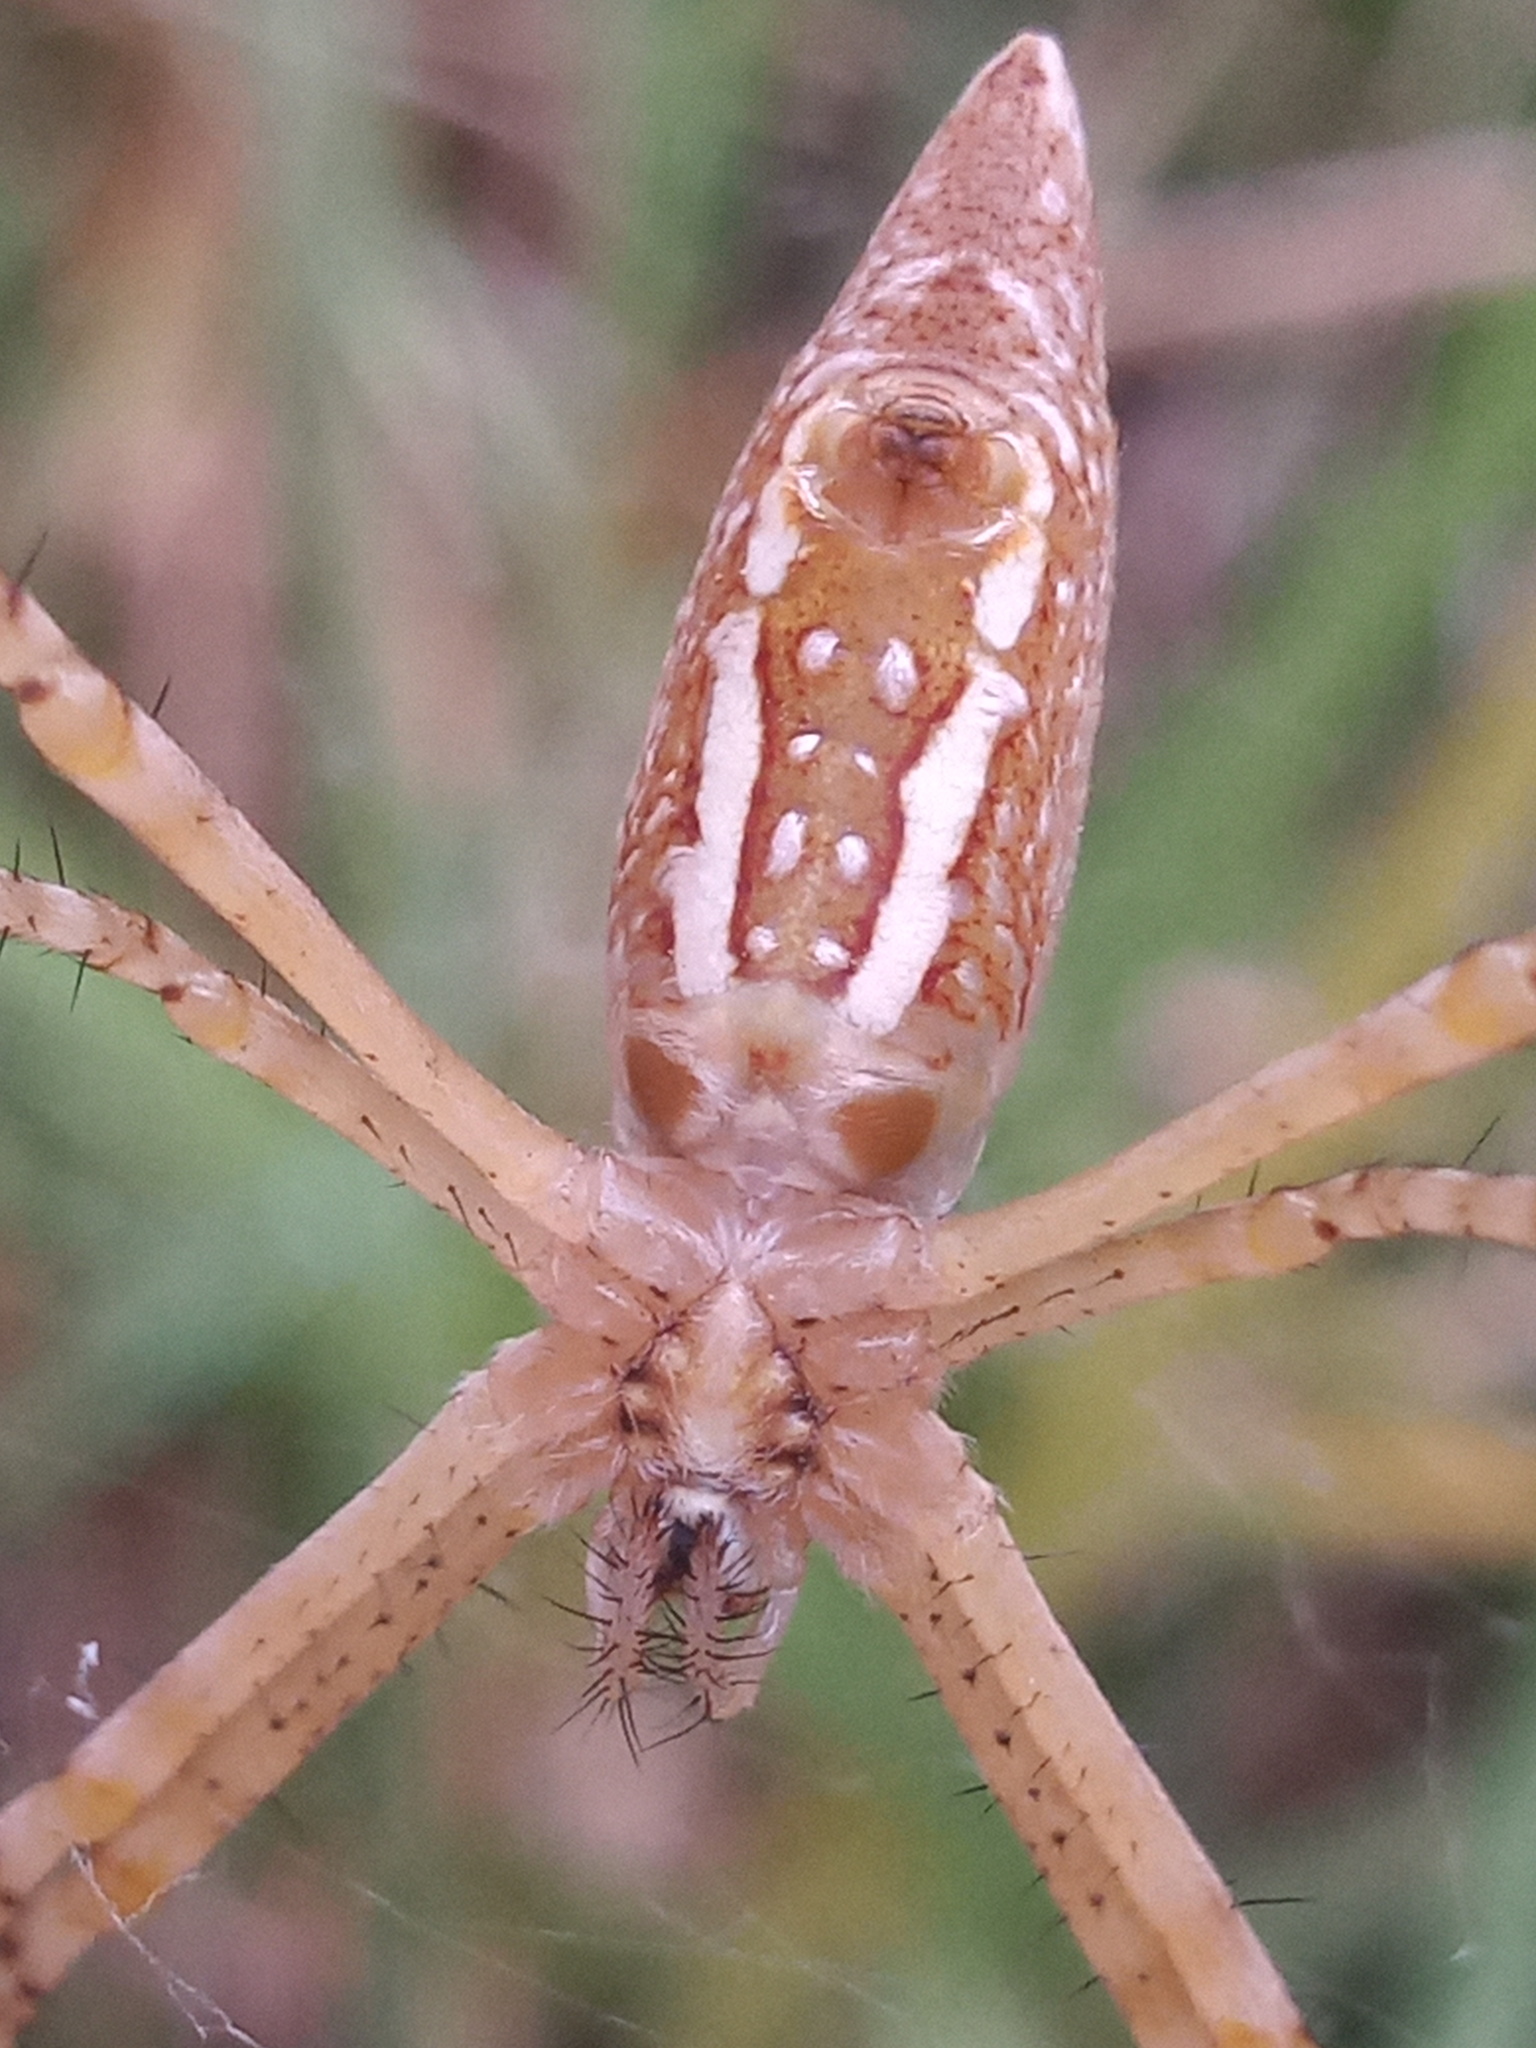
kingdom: Animalia
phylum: Arthropoda
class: Arachnida
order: Araneae
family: Araneidae
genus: Argiope
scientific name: Argiope trifasciata
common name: Banded garden spider
